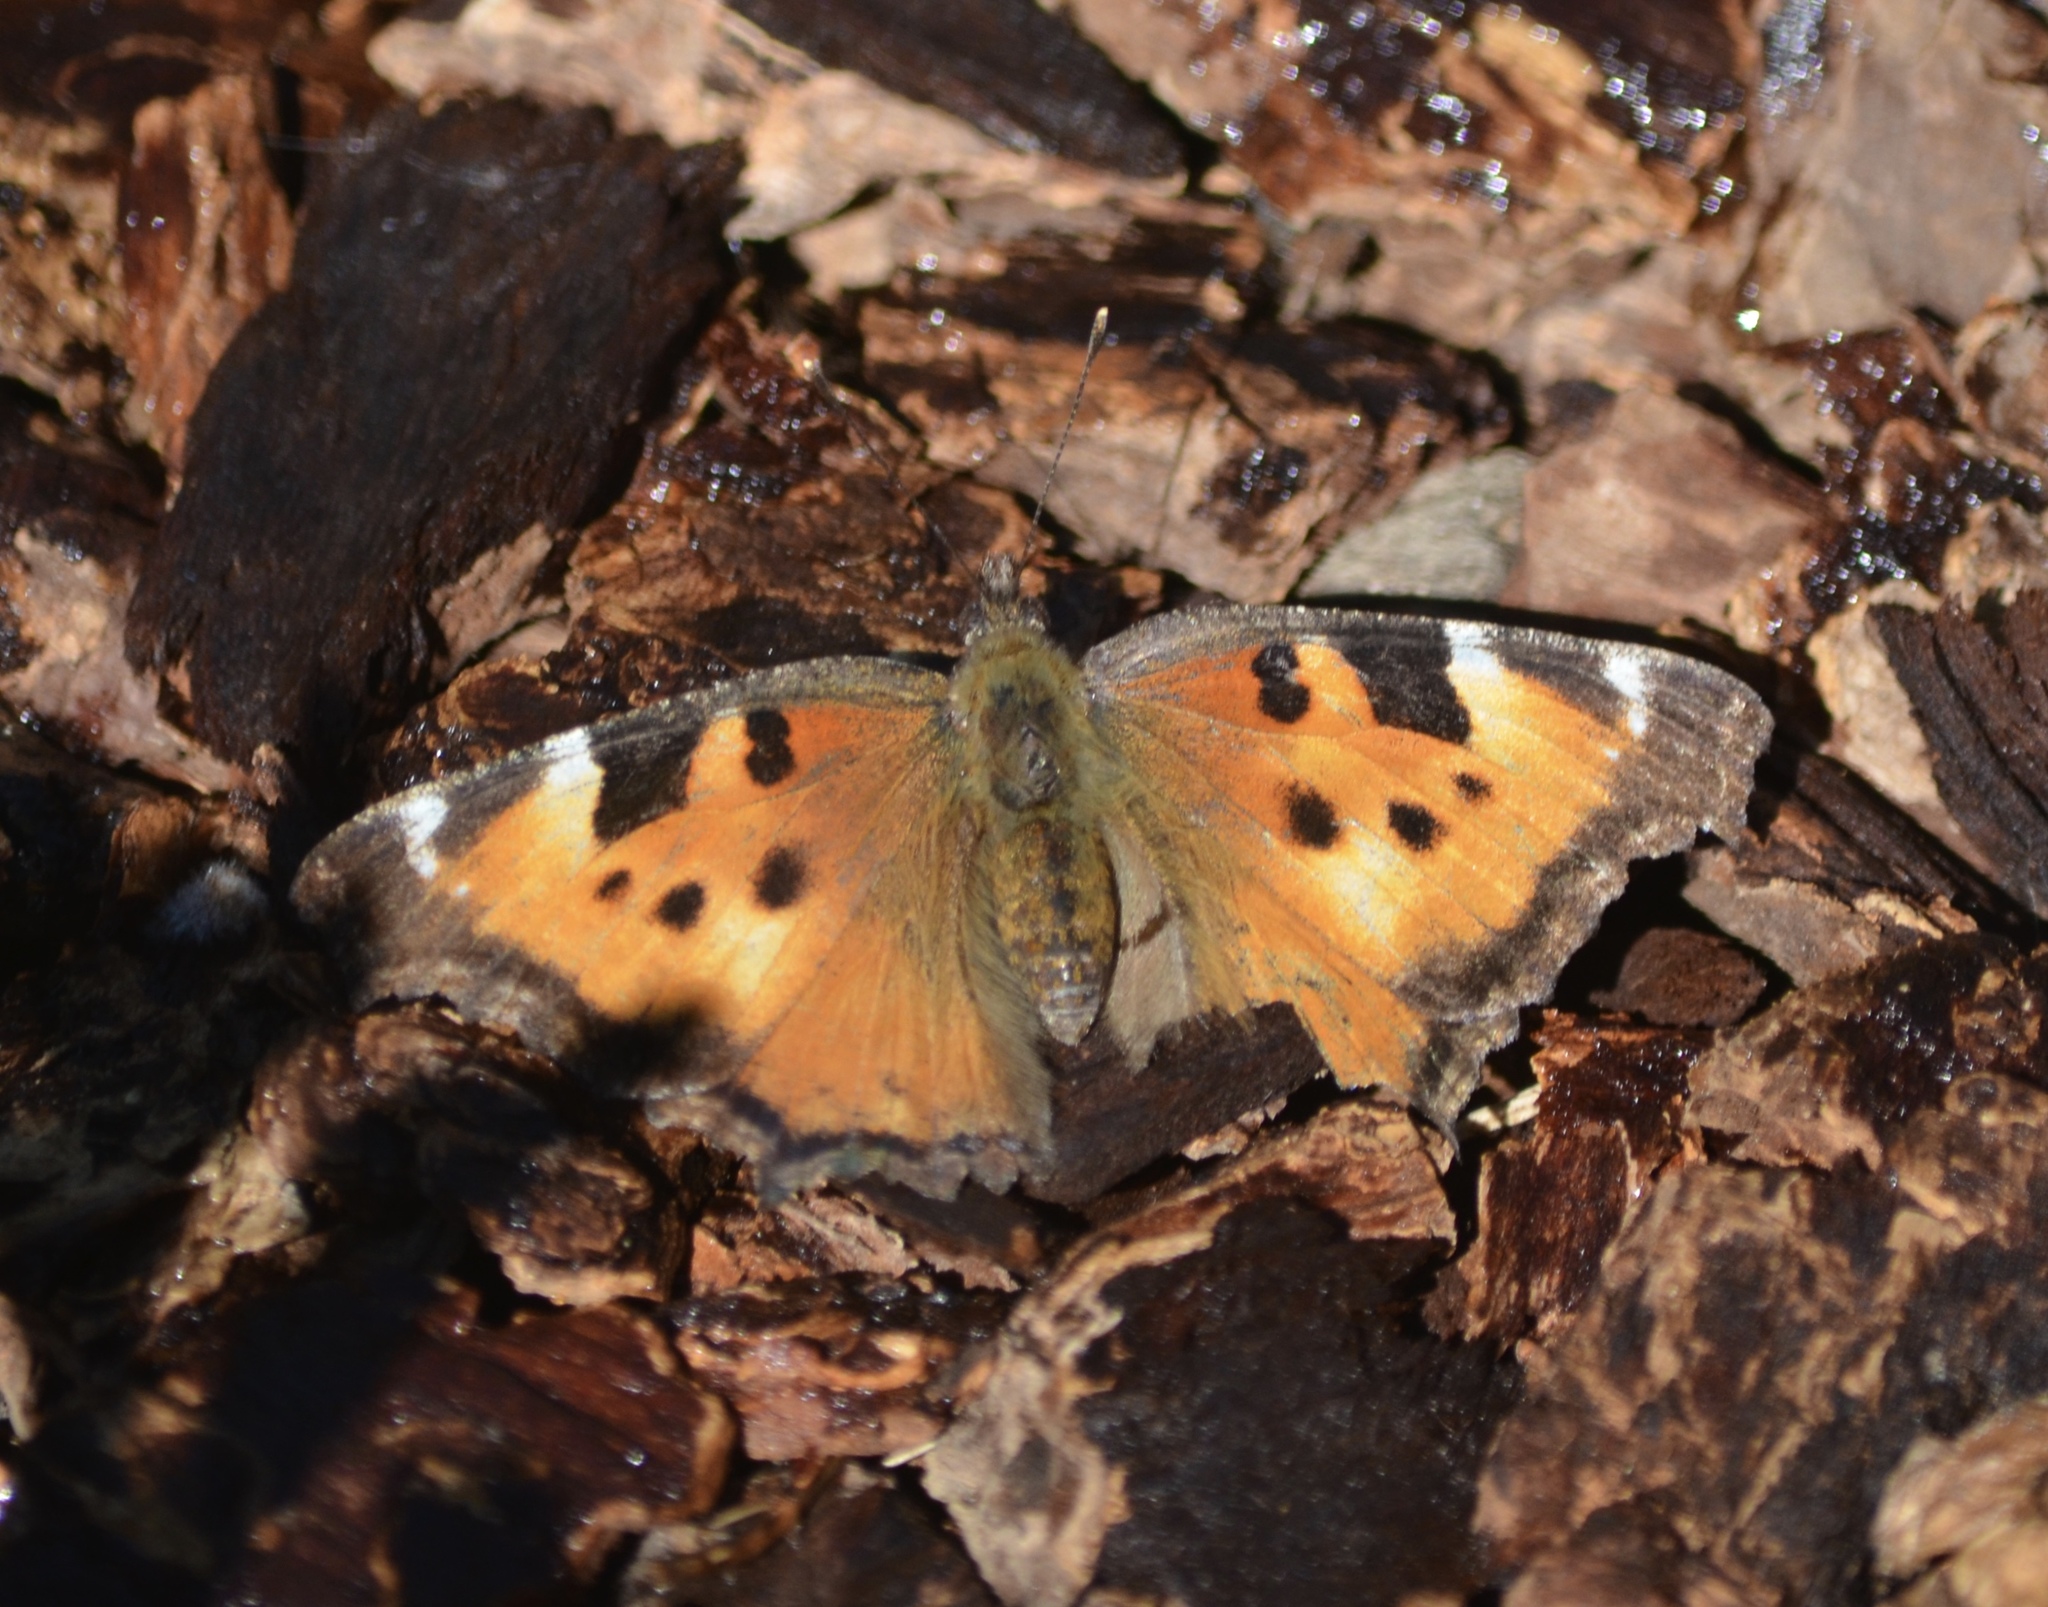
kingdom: Animalia
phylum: Arthropoda
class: Insecta
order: Lepidoptera
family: Nymphalidae
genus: Nymphalis
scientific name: Nymphalis californica
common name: California tortoiseshell
